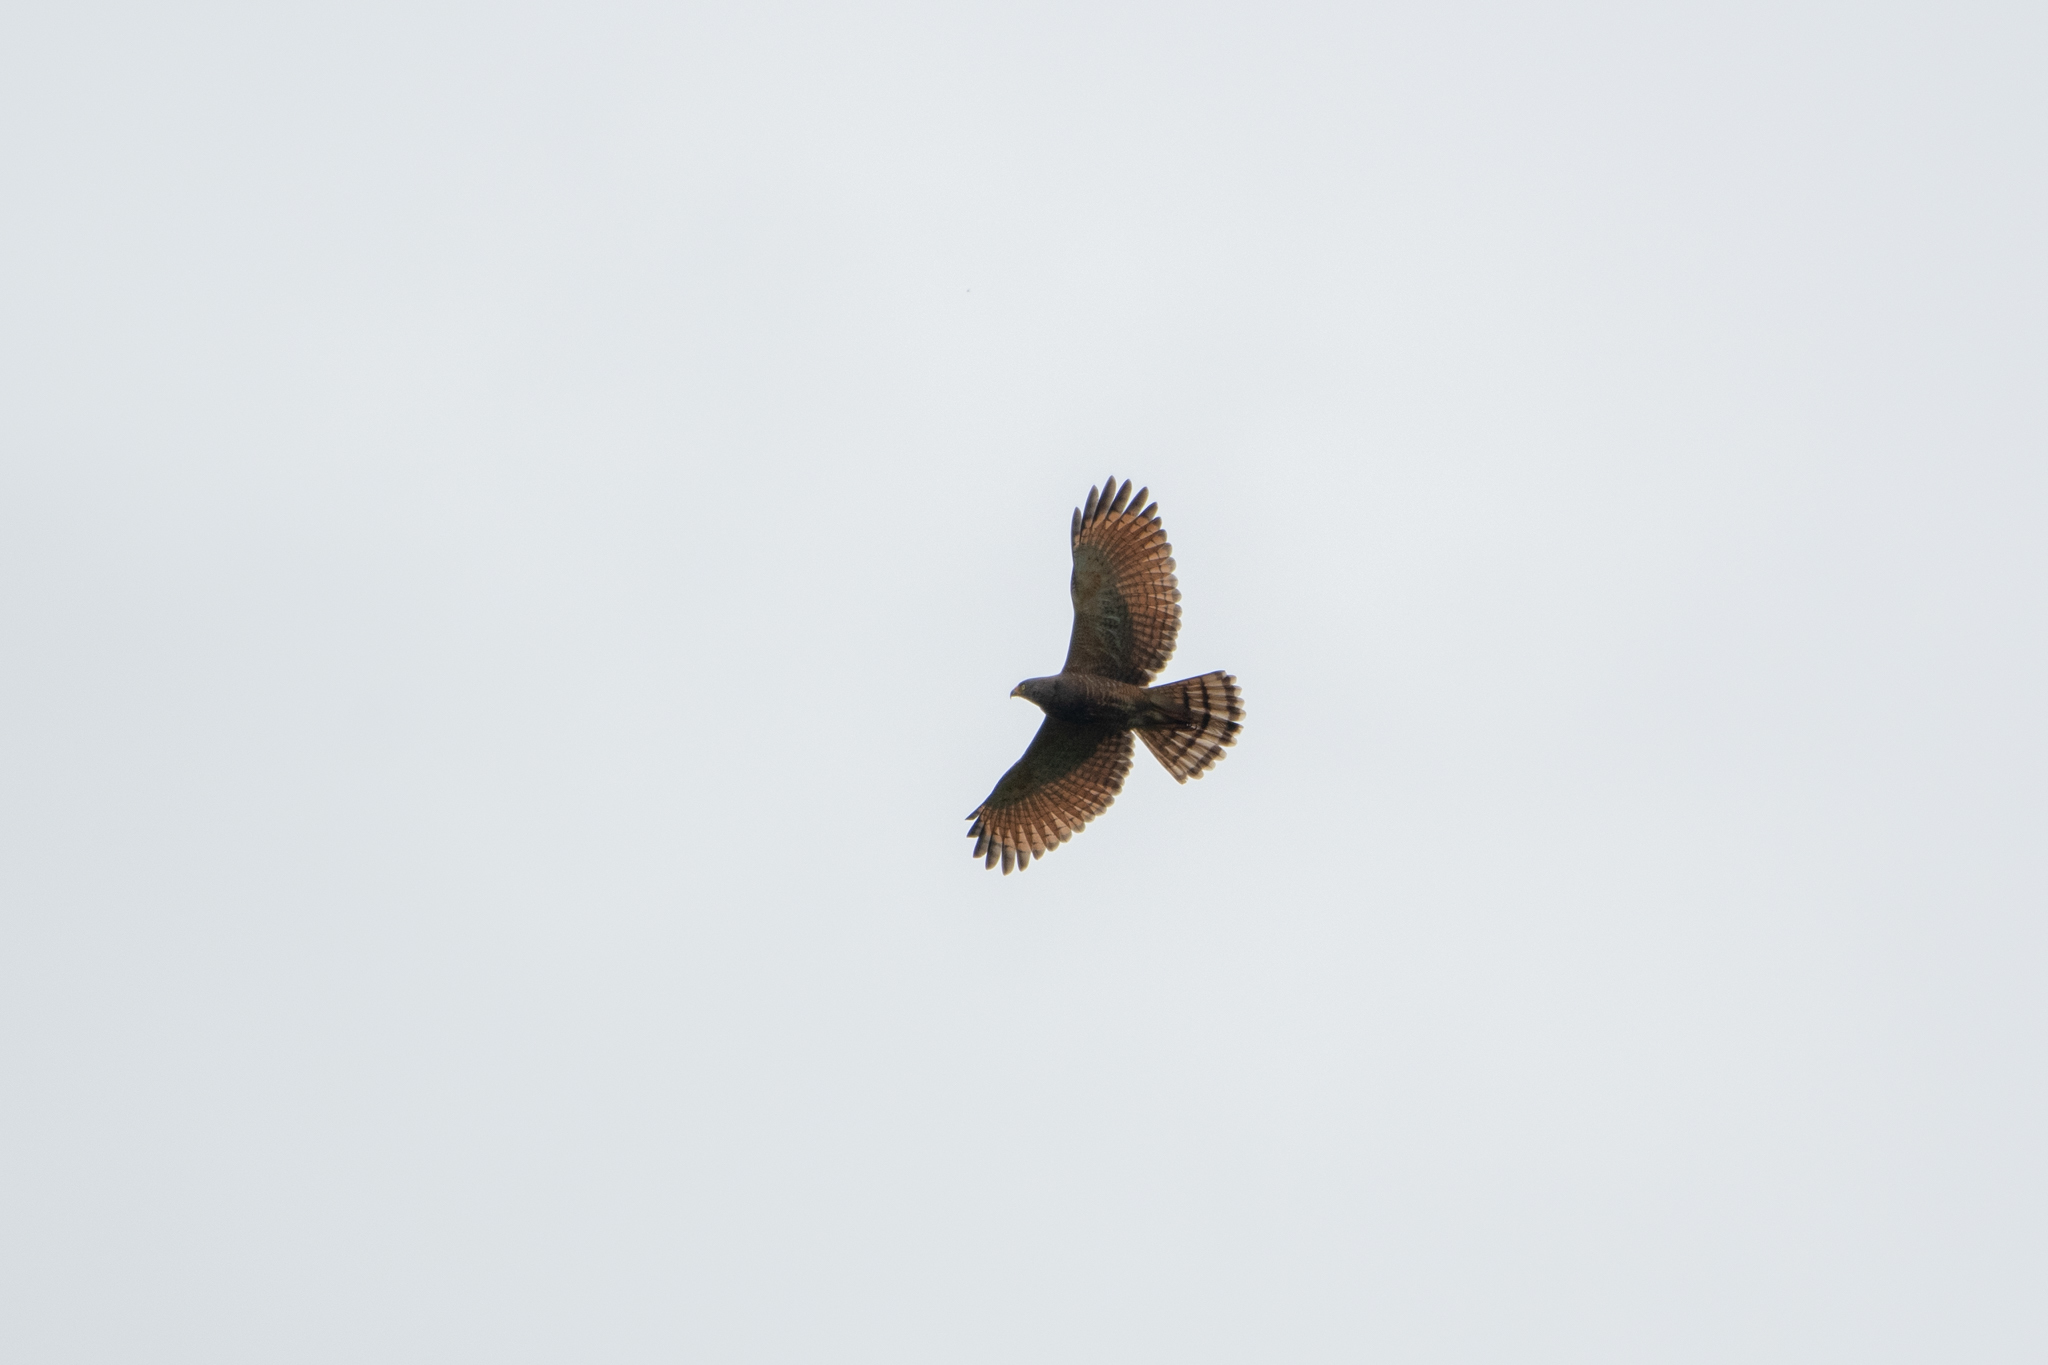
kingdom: Animalia
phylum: Chordata
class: Aves
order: Accipitriformes
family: Accipitridae
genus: Rupornis
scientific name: Rupornis magnirostris
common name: Roadside hawk
